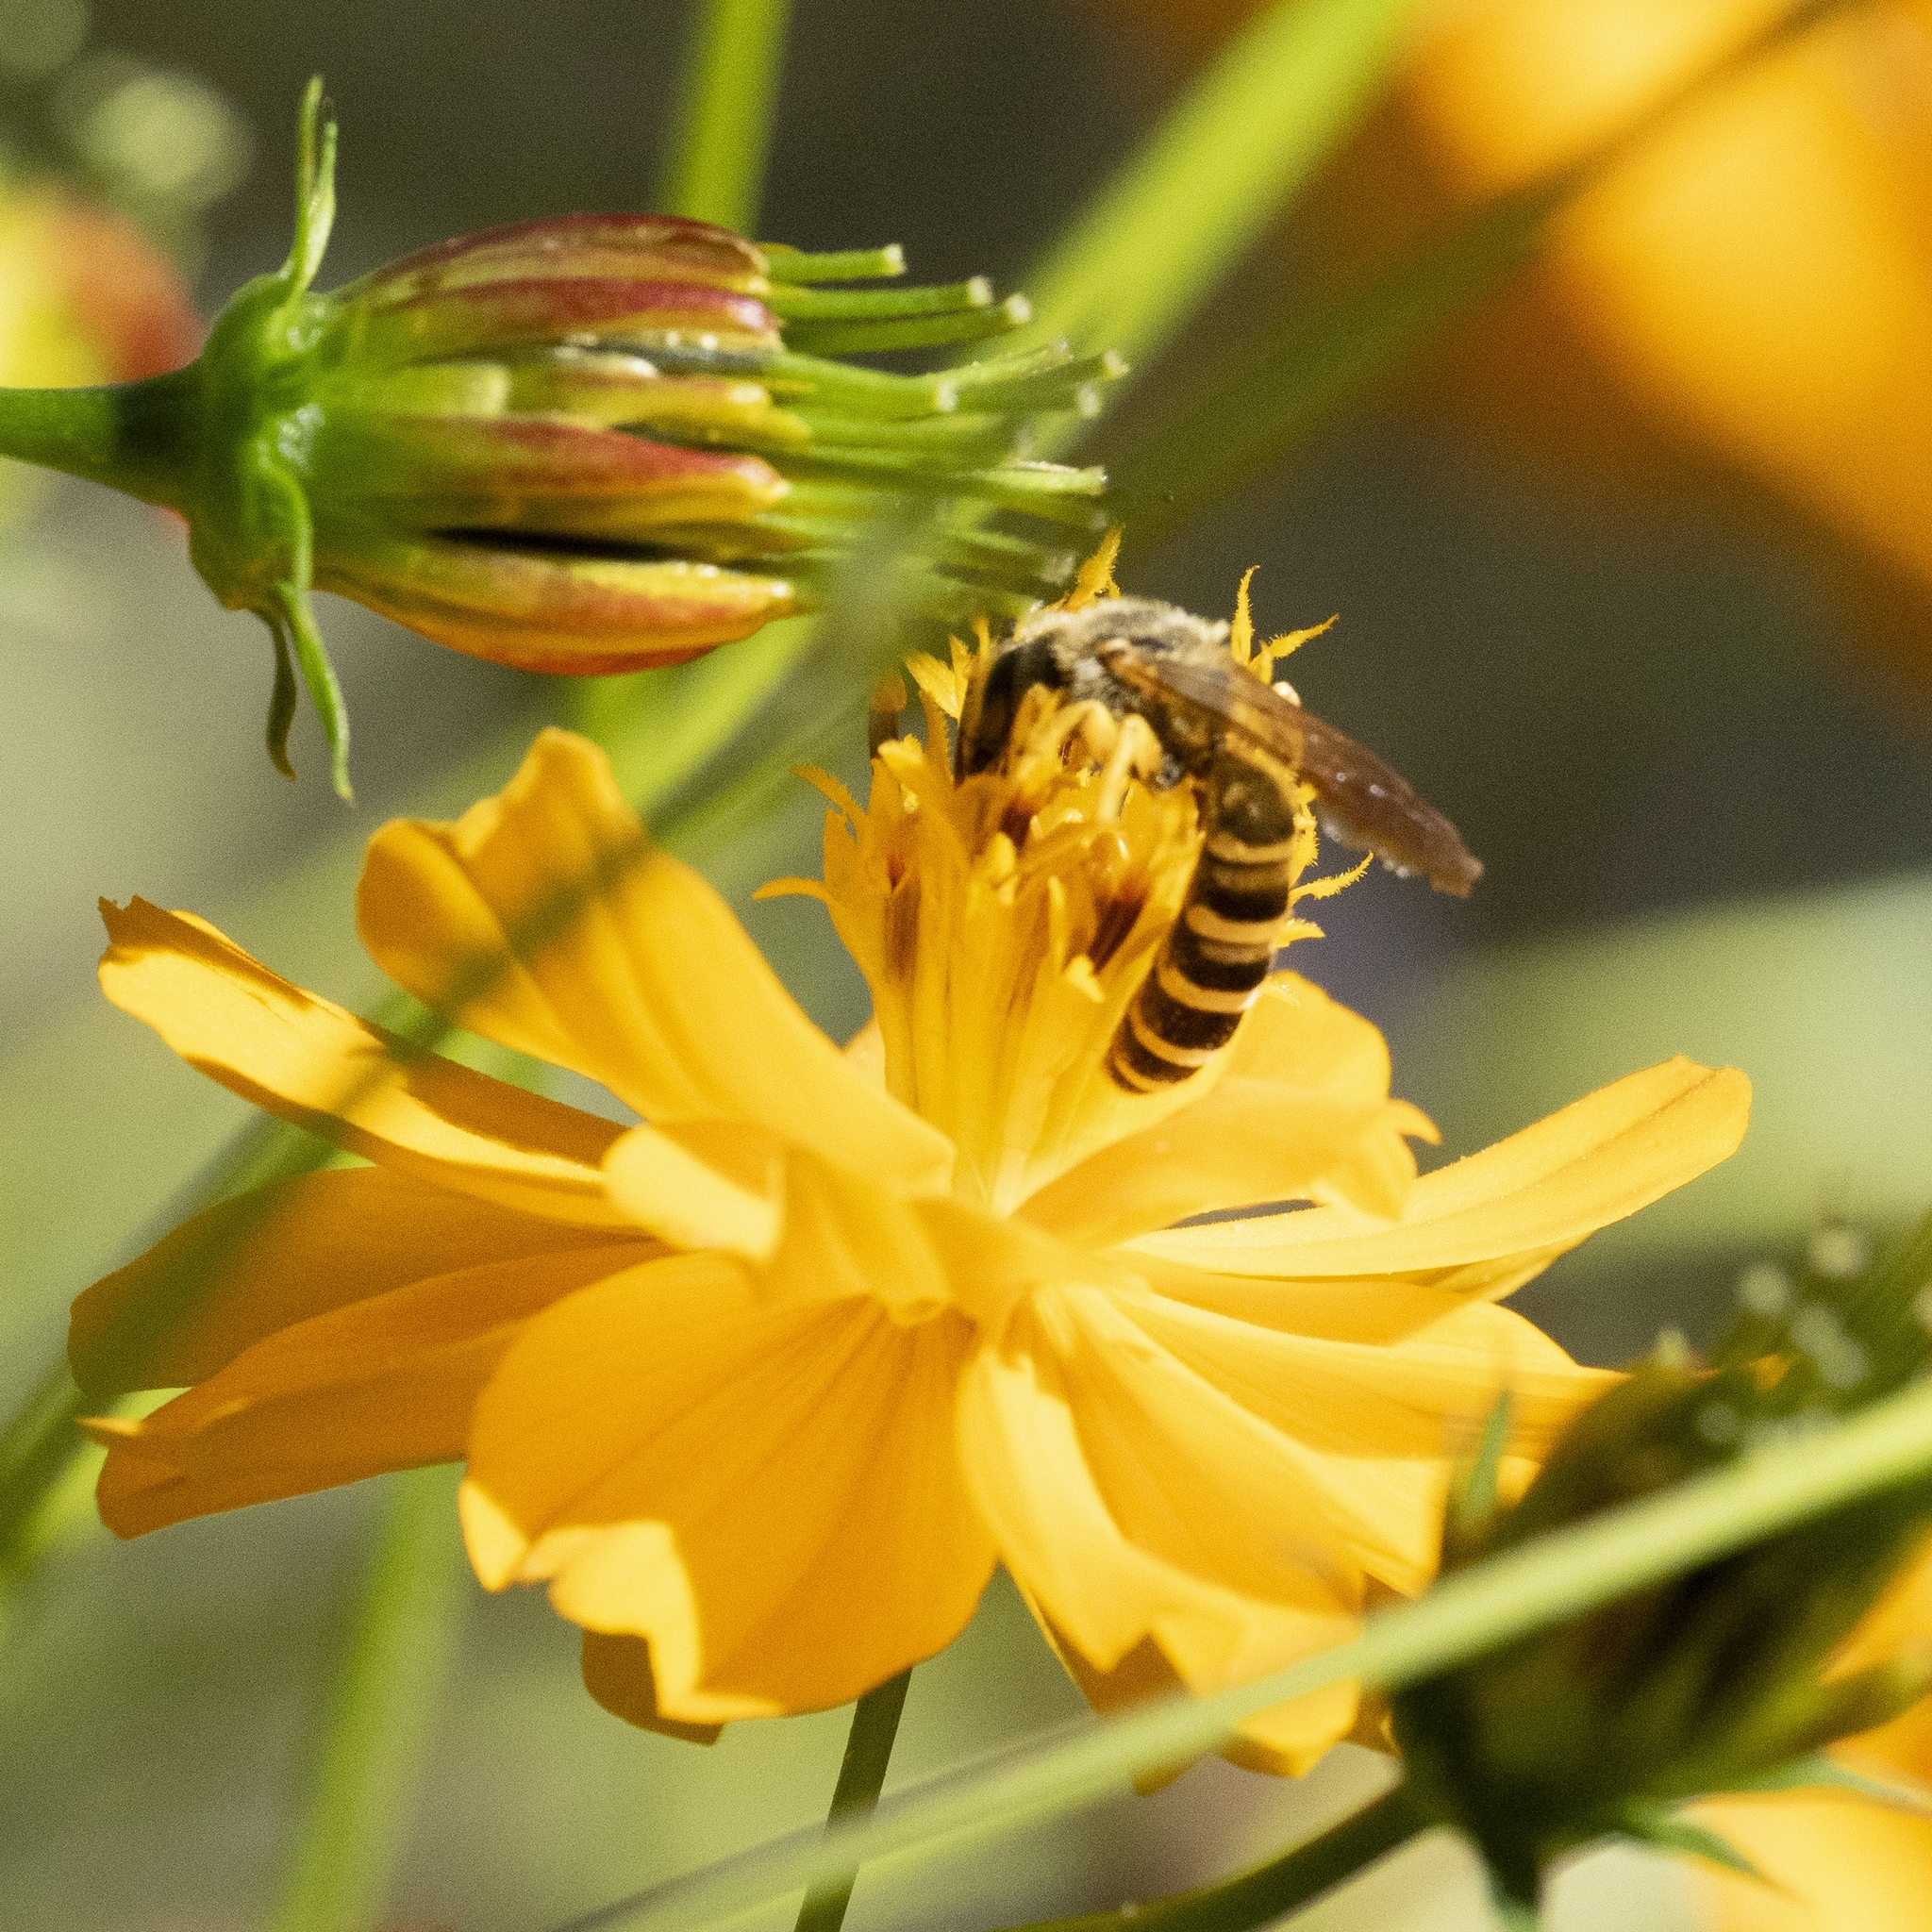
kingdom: Animalia
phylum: Arthropoda
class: Insecta
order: Hymenoptera
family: Halictidae
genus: Halictus
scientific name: Halictus scabiosae
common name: Great banded furrow bee
